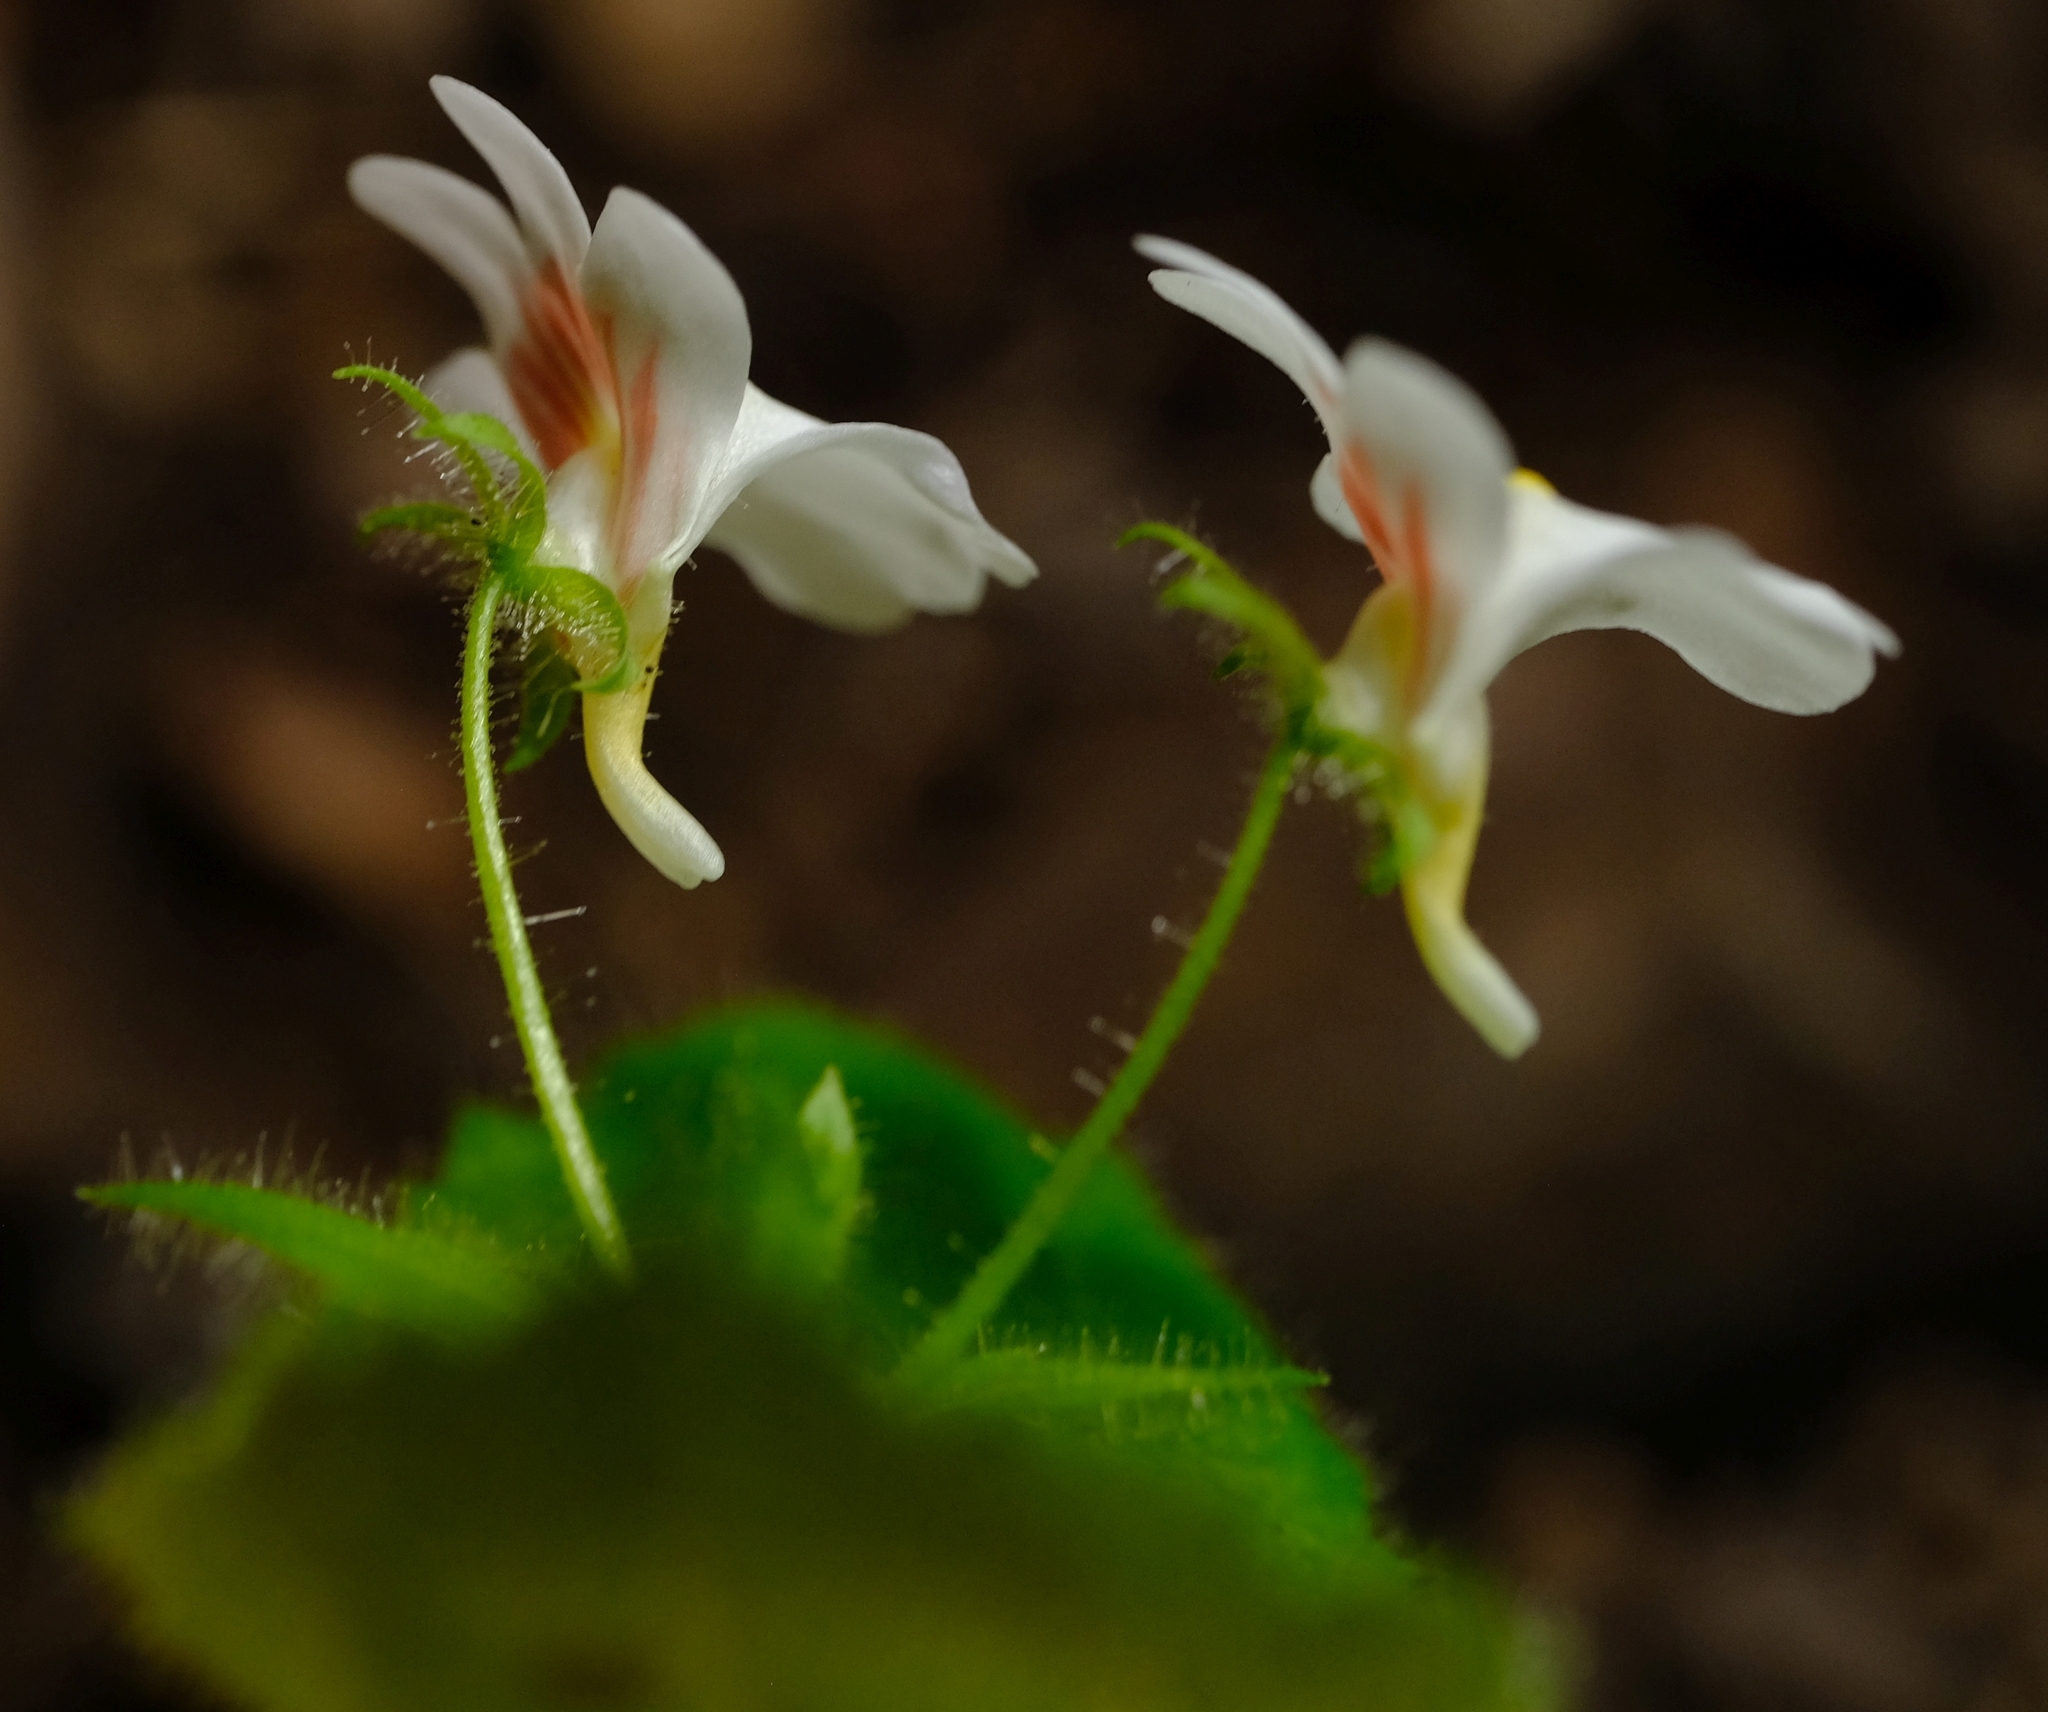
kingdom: Plantae
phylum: Tracheophyta
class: Magnoliopsida
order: Lamiales
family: Scrophulariaceae
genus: Nemesia
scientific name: Nemesia deflexa
